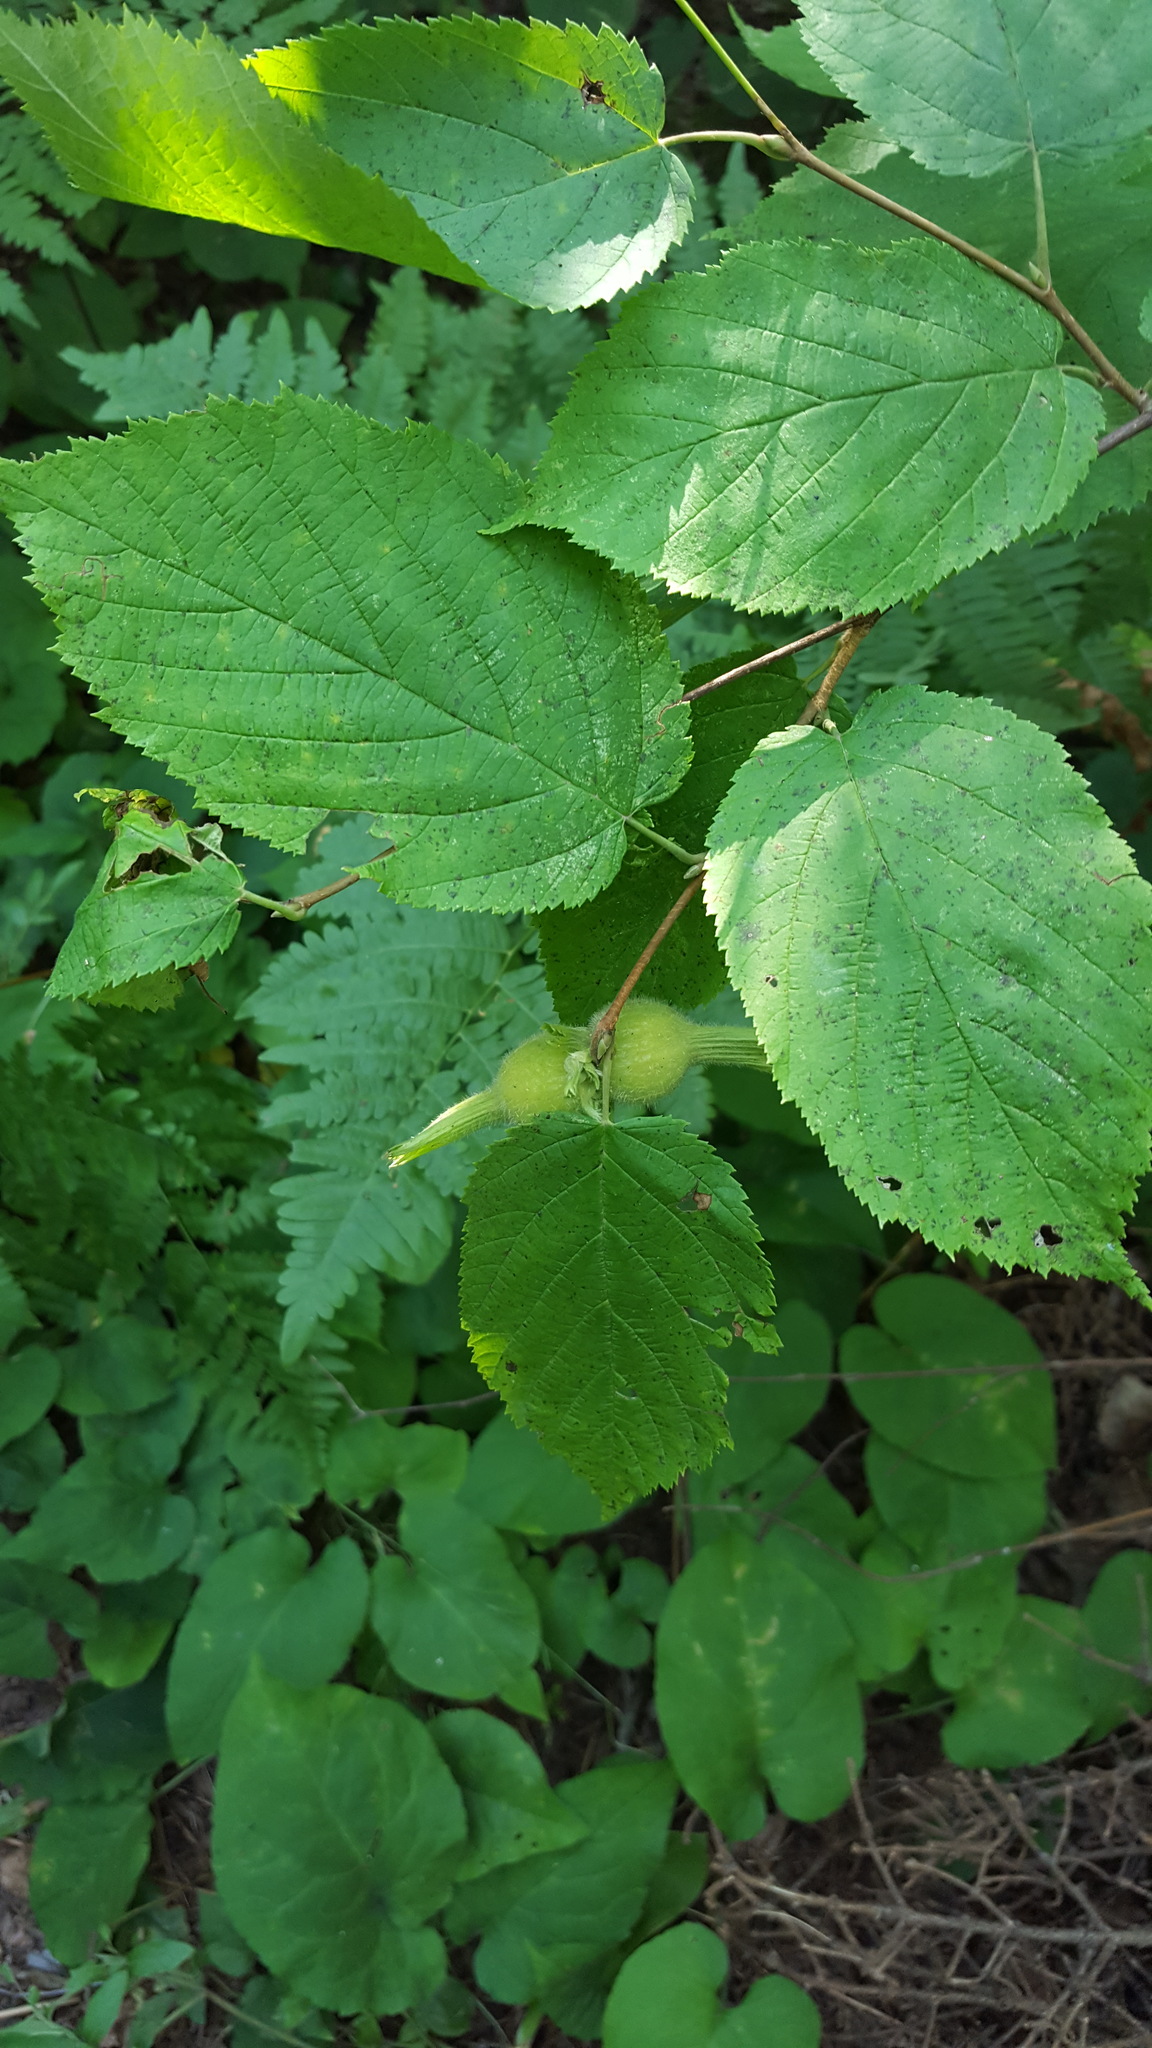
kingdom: Plantae
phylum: Tracheophyta
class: Magnoliopsida
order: Fagales
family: Betulaceae
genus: Corylus
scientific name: Corylus cornuta
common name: Beaked hazel
